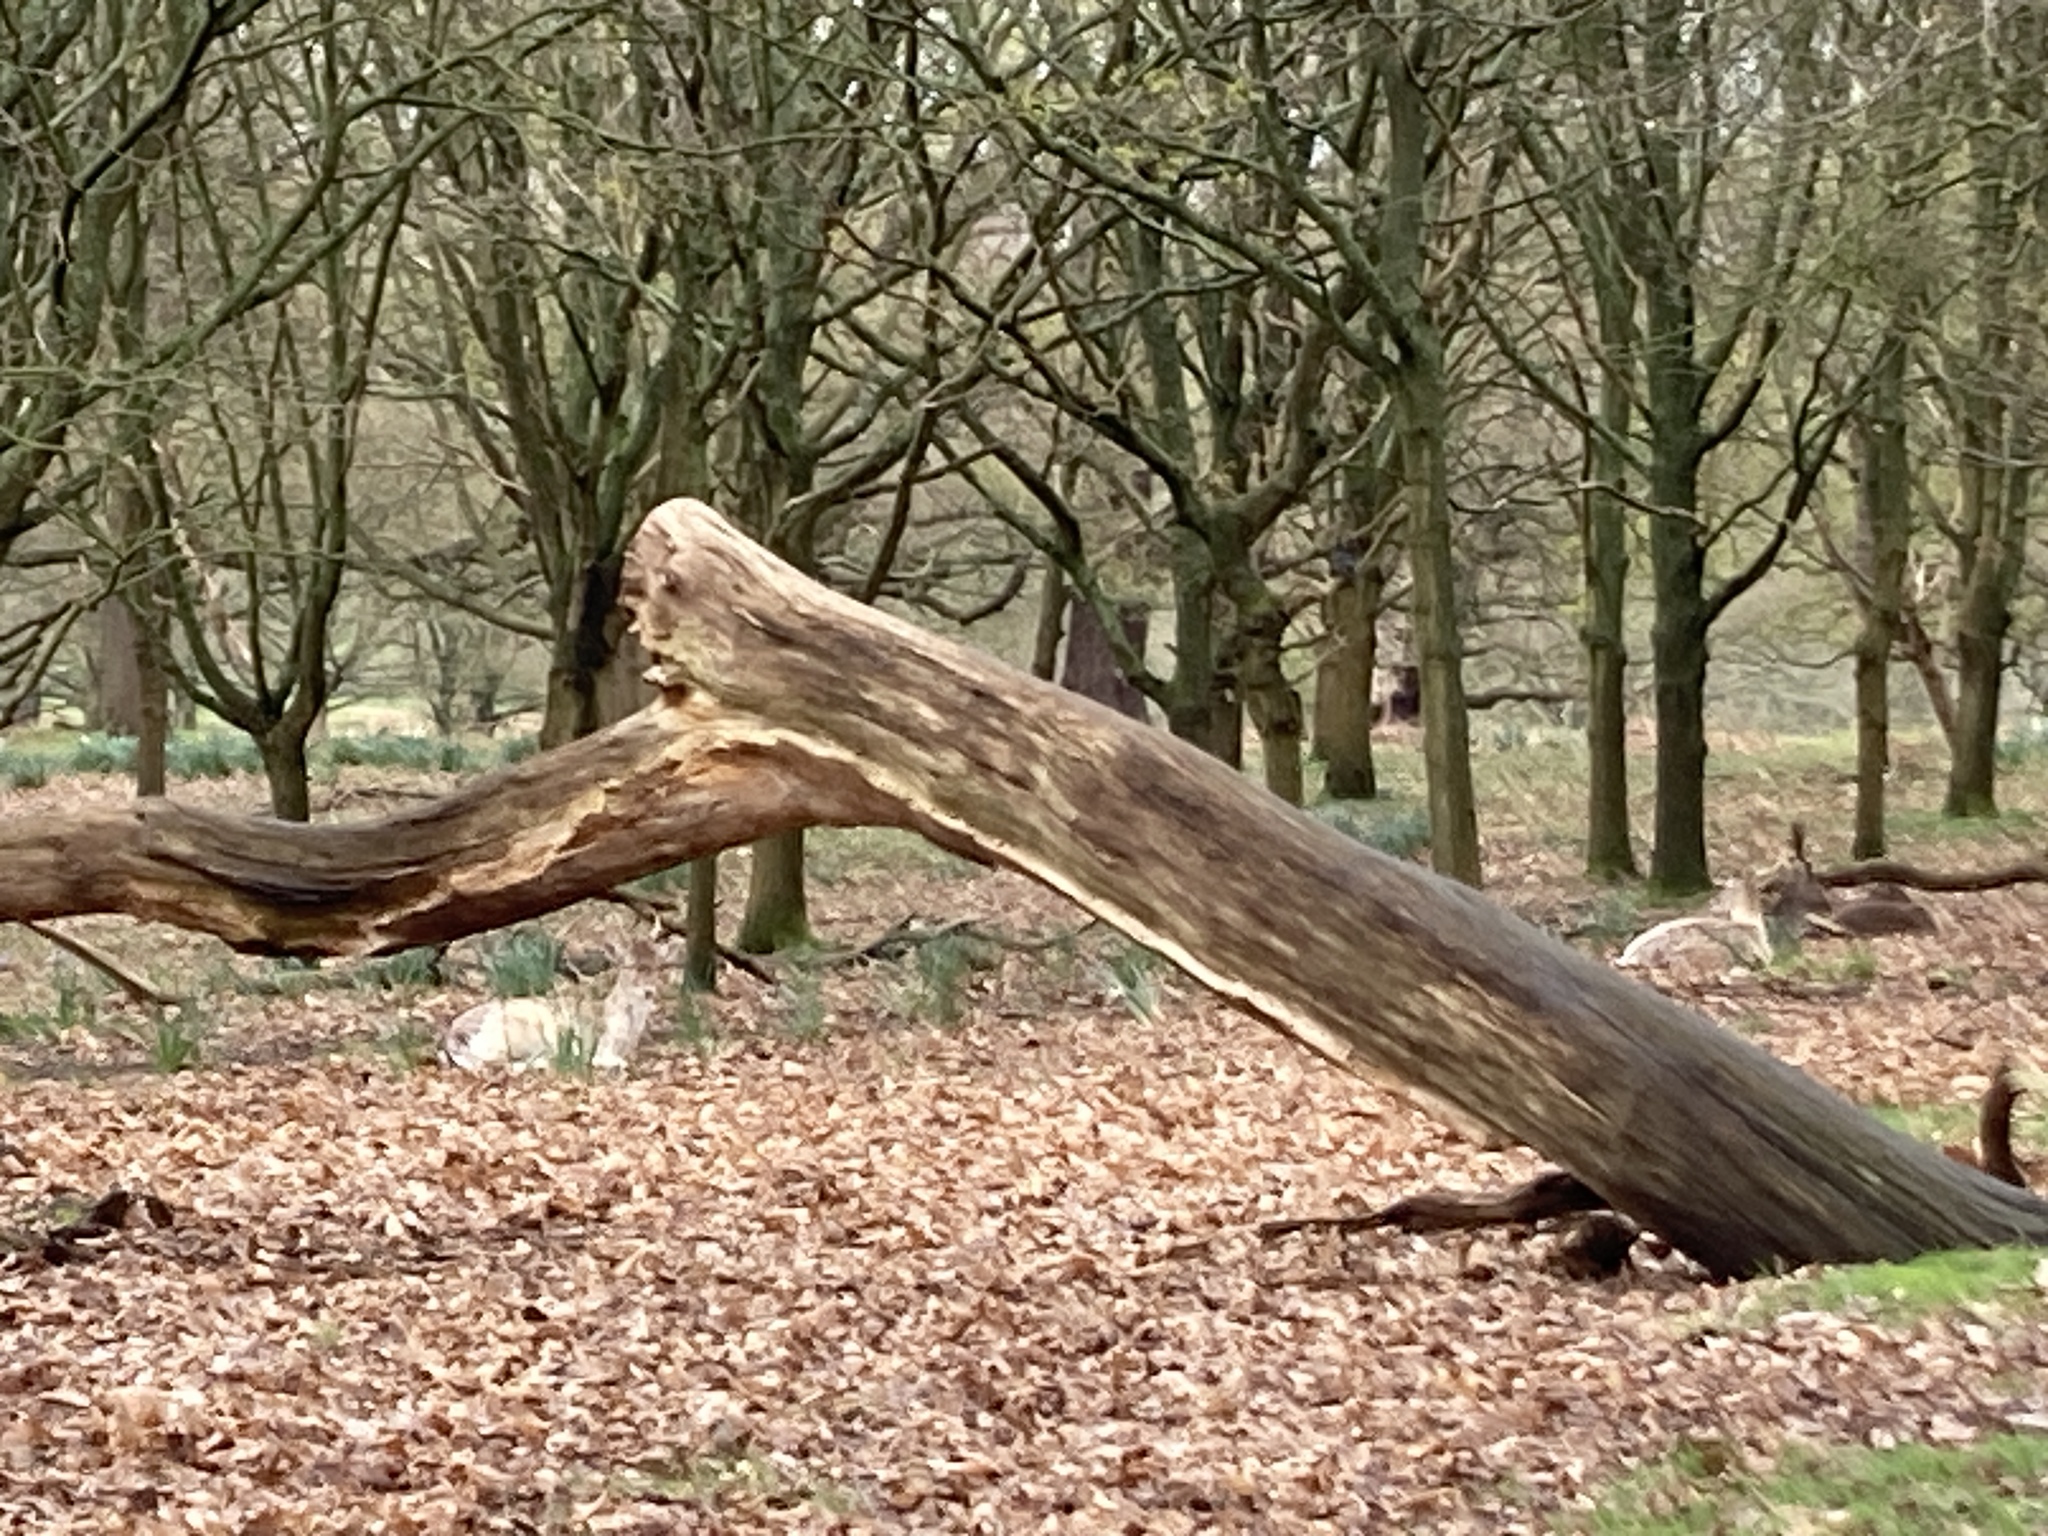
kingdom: Animalia
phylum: Chordata
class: Mammalia
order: Artiodactyla
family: Cervidae
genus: Dama
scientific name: Dama dama
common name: Fallow deer
